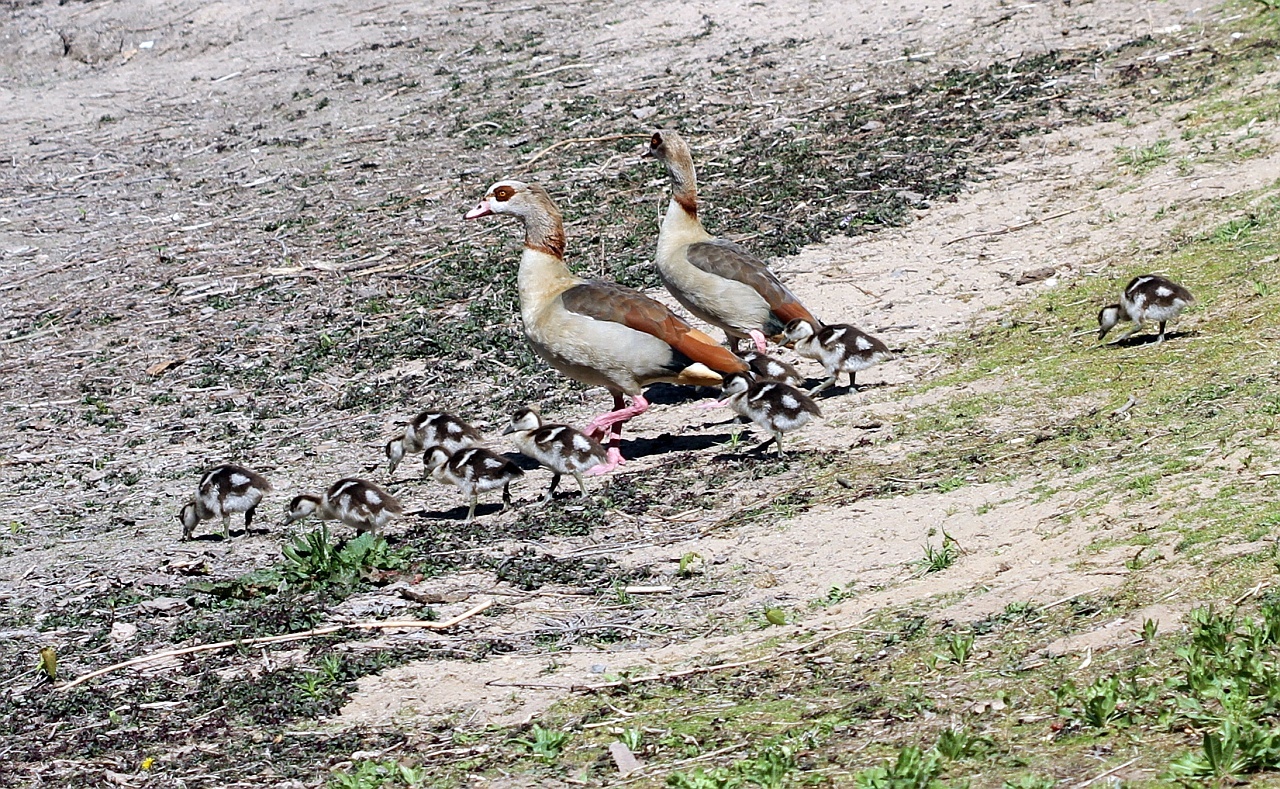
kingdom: Animalia
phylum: Chordata
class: Aves
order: Anseriformes
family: Anatidae
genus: Alopochen
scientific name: Alopochen aegyptiaca
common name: Egyptian goose
